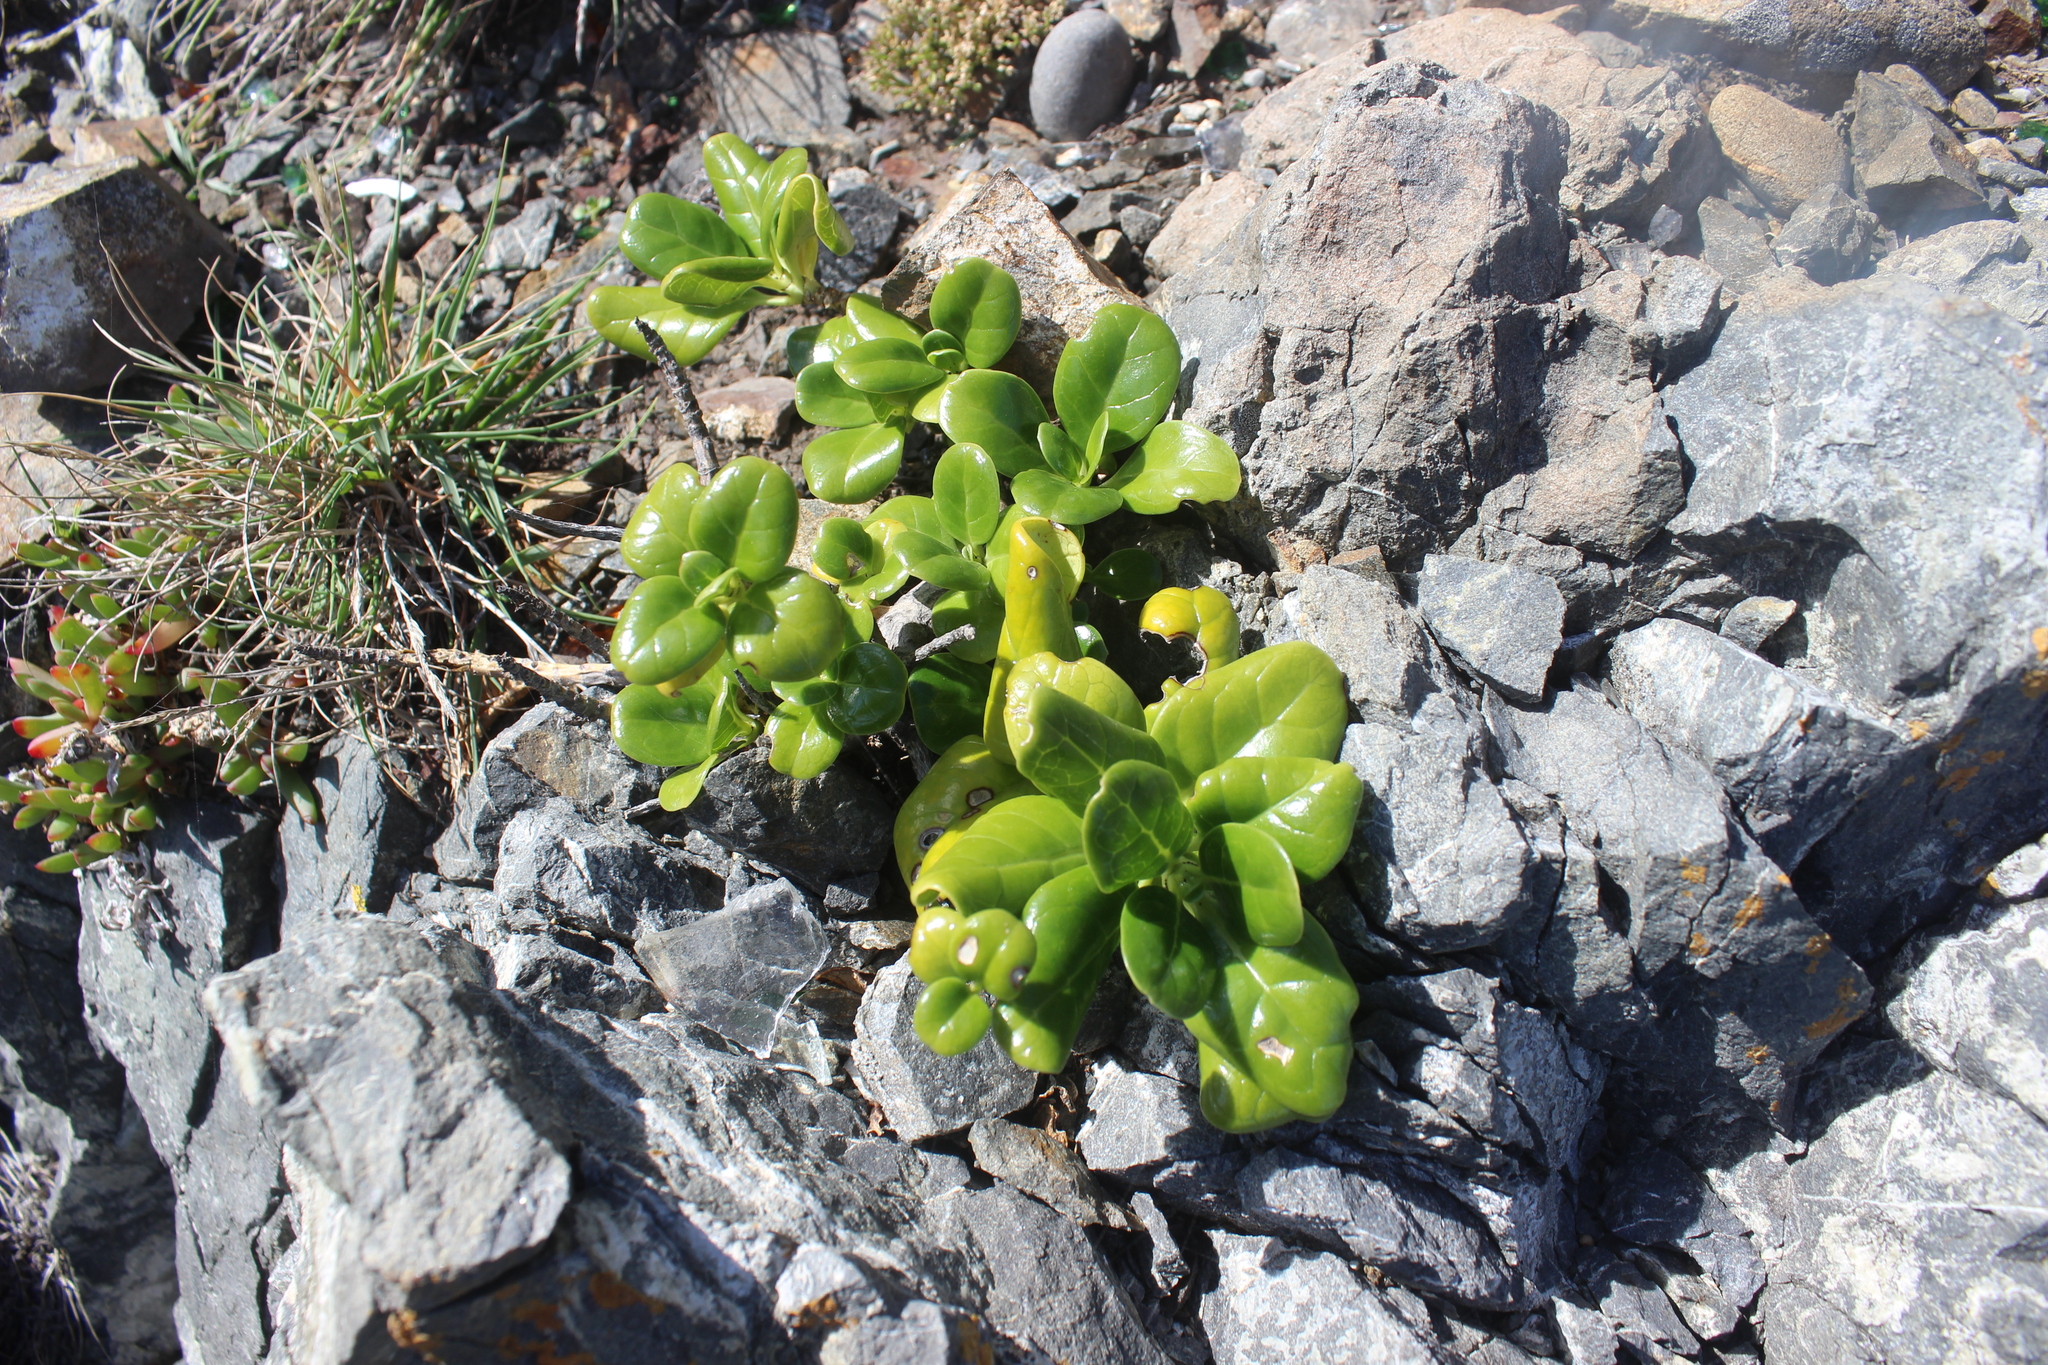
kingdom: Plantae
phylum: Tracheophyta
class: Magnoliopsida
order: Gentianales
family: Rubiaceae
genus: Coprosma
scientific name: Coprosma repens
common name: Tree bedstraw
